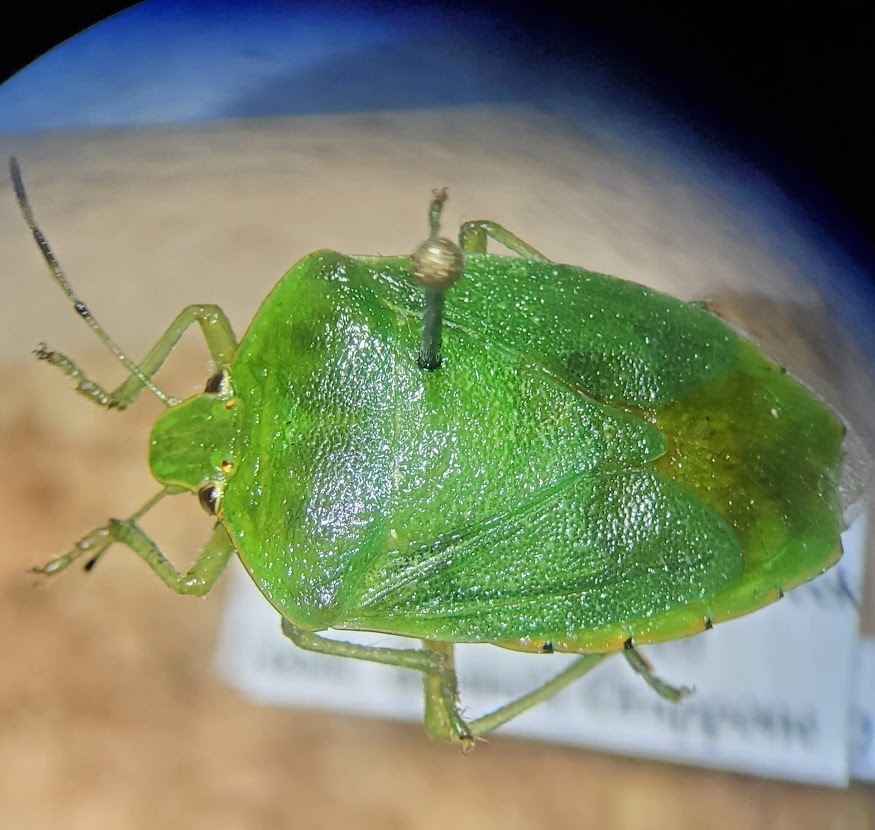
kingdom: Animalia
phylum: Arthropoda
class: Insecta
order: Hemiptera
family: Pentatomidae
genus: Chinavia
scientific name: Chinavia hilaris
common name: Green stink bug
